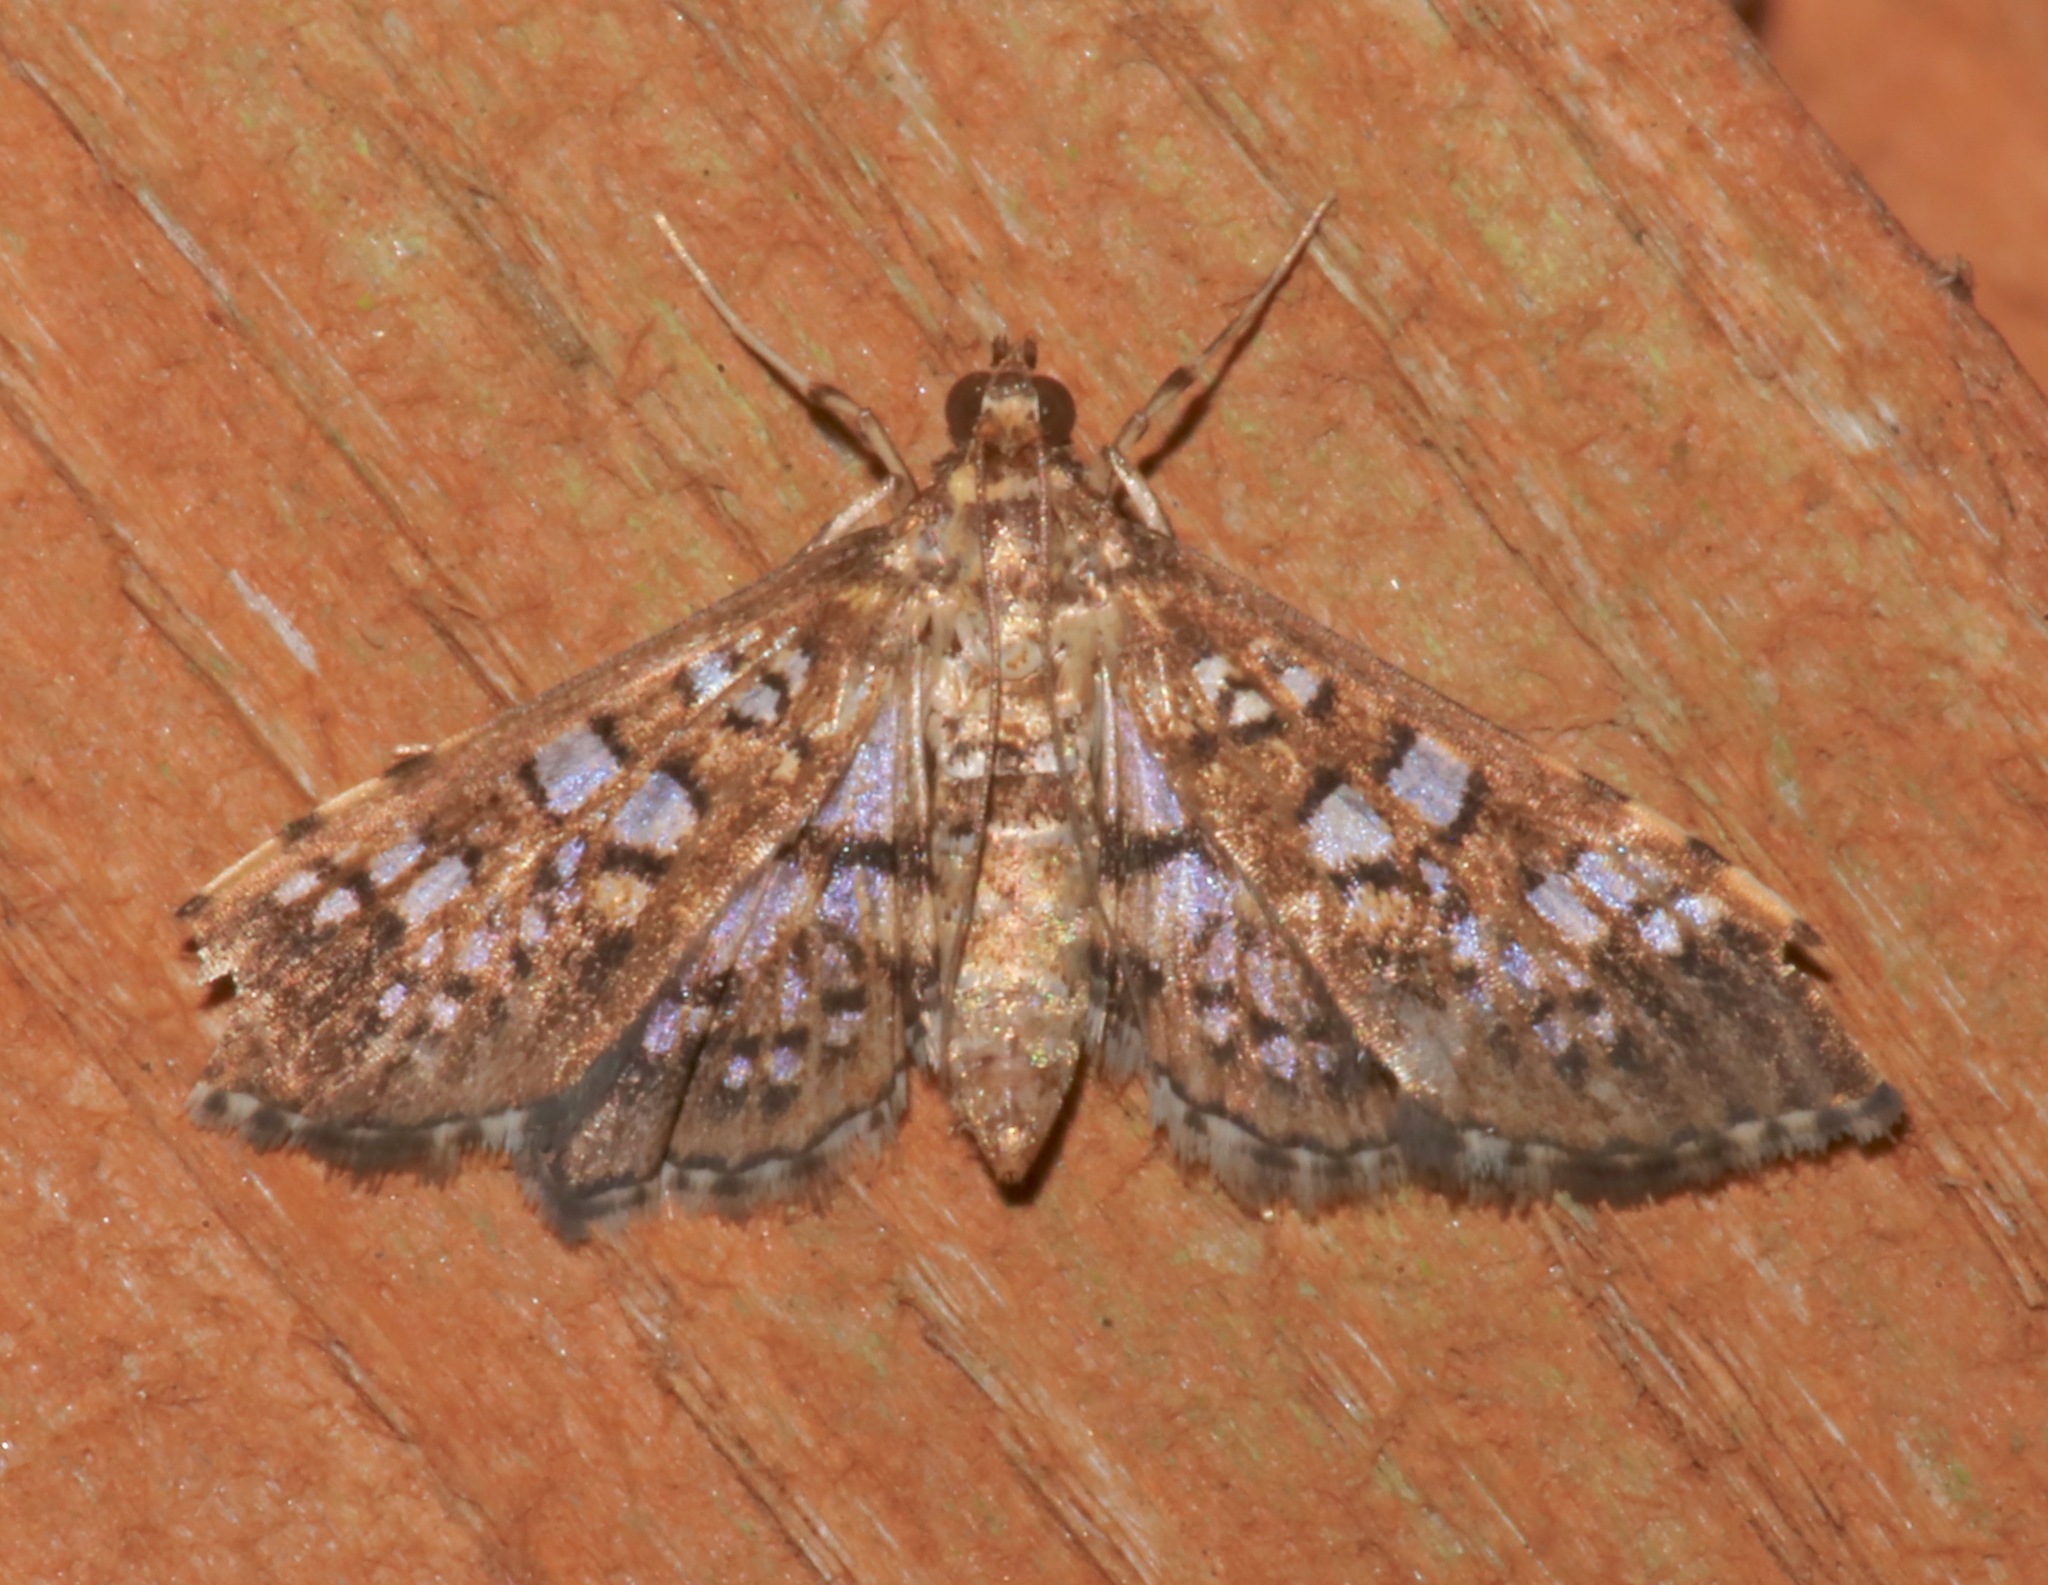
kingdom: Animalia
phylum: Arthropoda
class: Insecta
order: Lepidoptera
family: Crambidae
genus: Samea
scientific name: Samea ecclesialis
